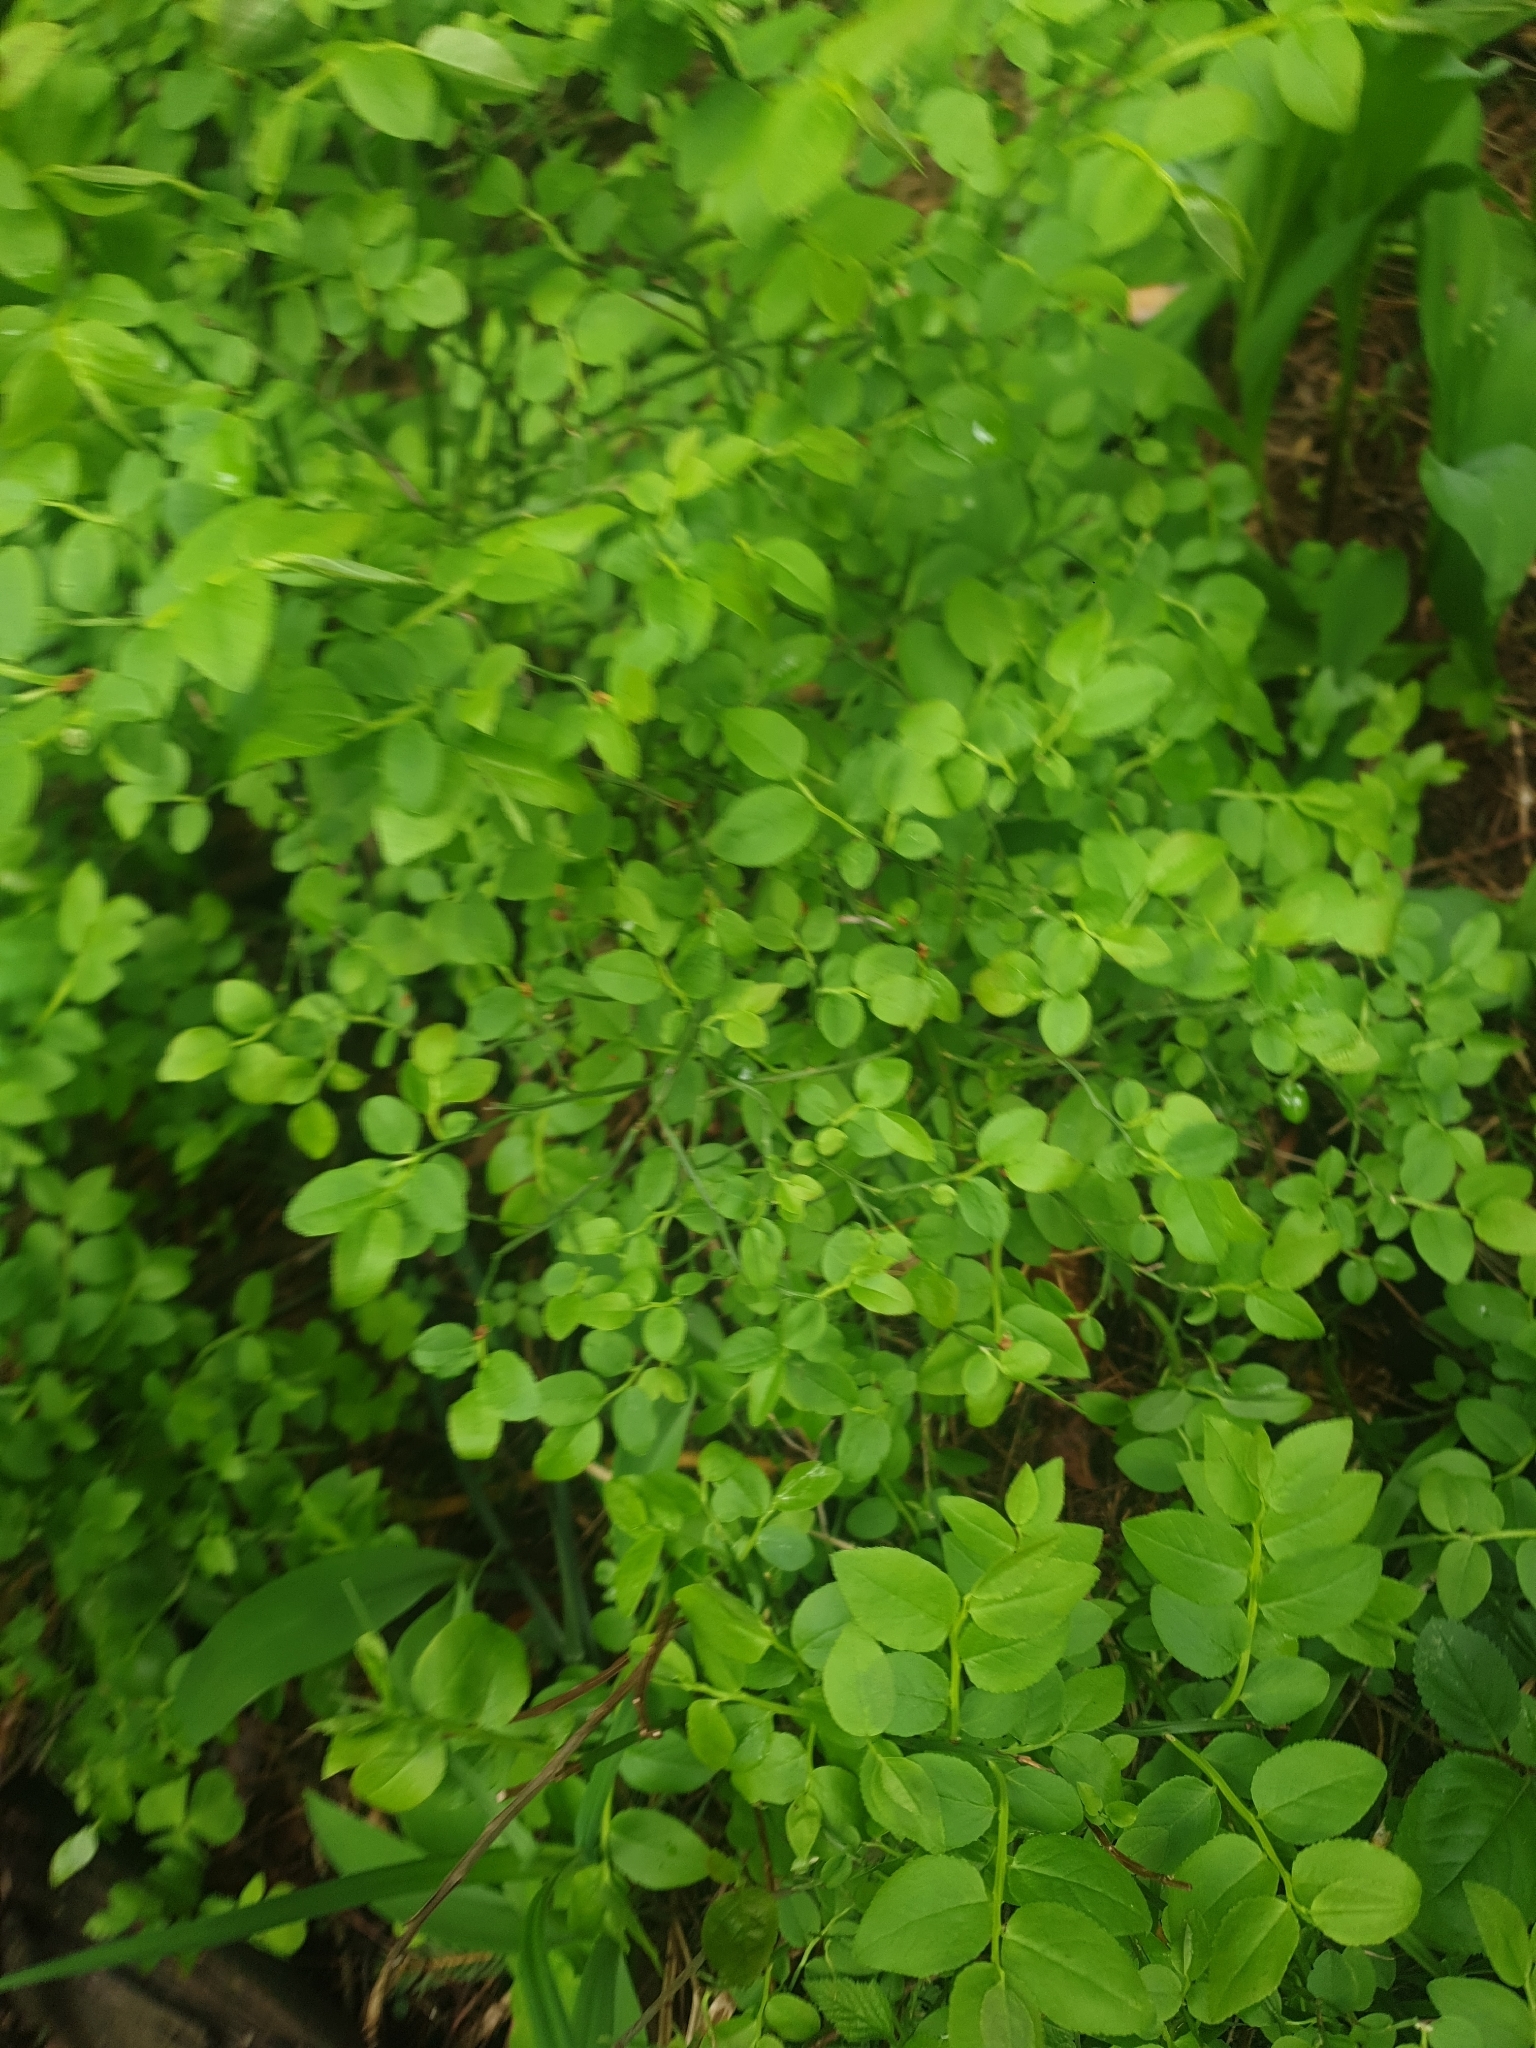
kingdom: Plantae
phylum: Tracheophyta
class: Magnoliopsida
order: Ericales
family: Ericaceae
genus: Vaccinium
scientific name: Vaccinium myrtillus
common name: Bilberry
